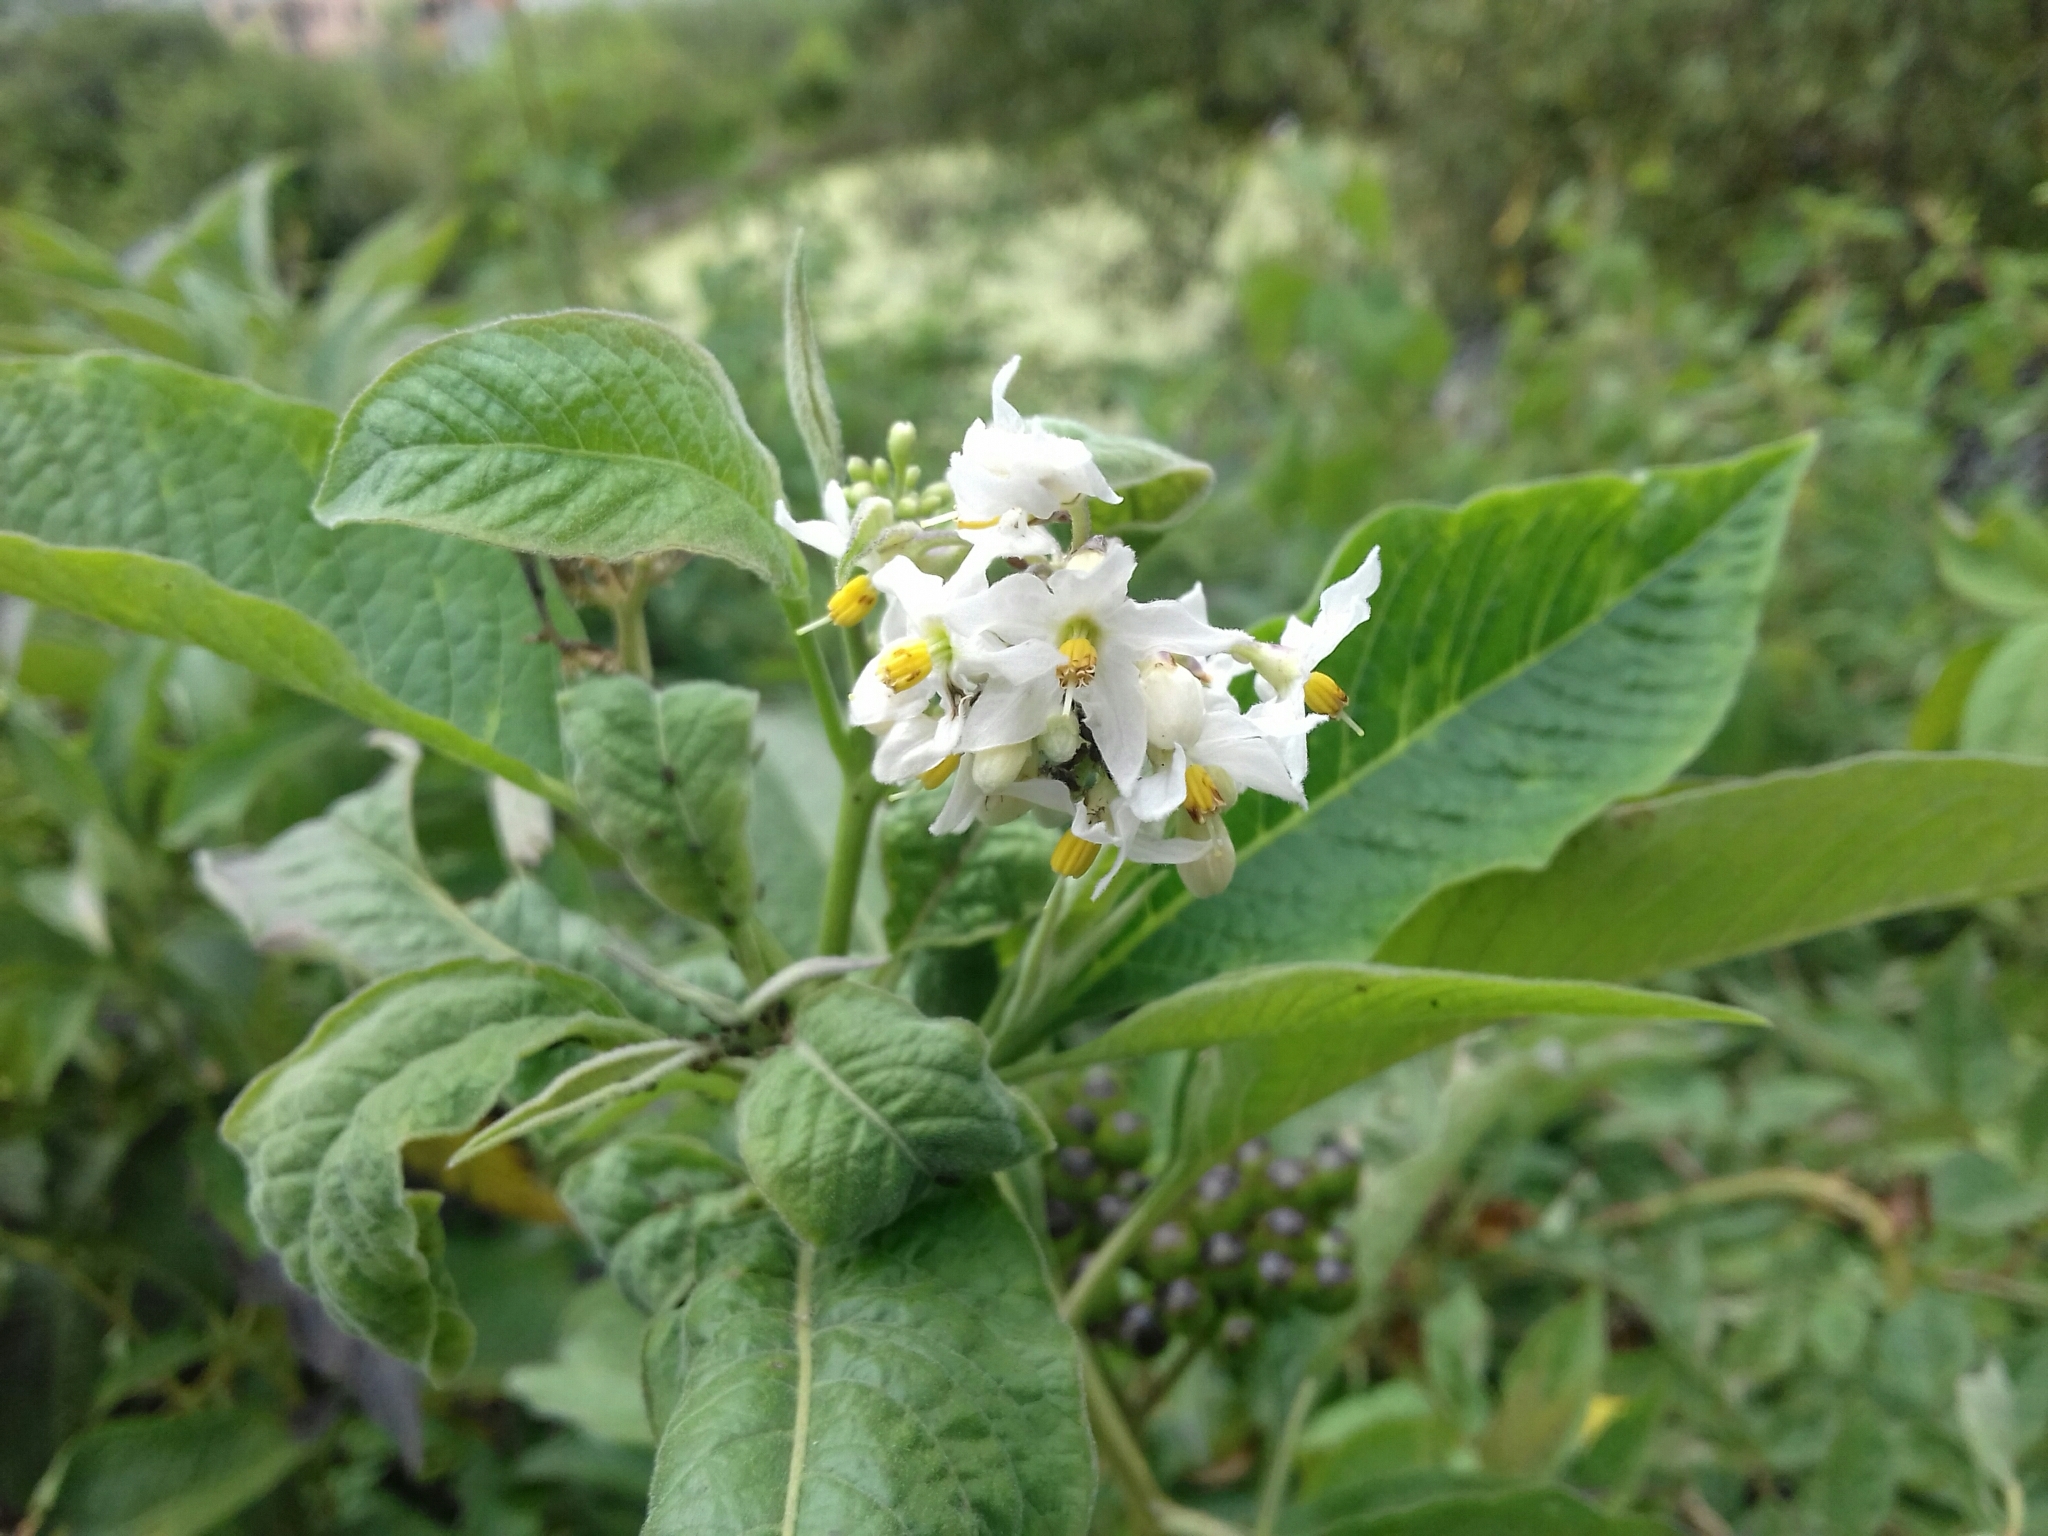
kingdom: Plantae
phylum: Tracheophyta
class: Magnoliopsida
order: Solanales
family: Solanaceae
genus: Solanum
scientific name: Solanum aligerum
